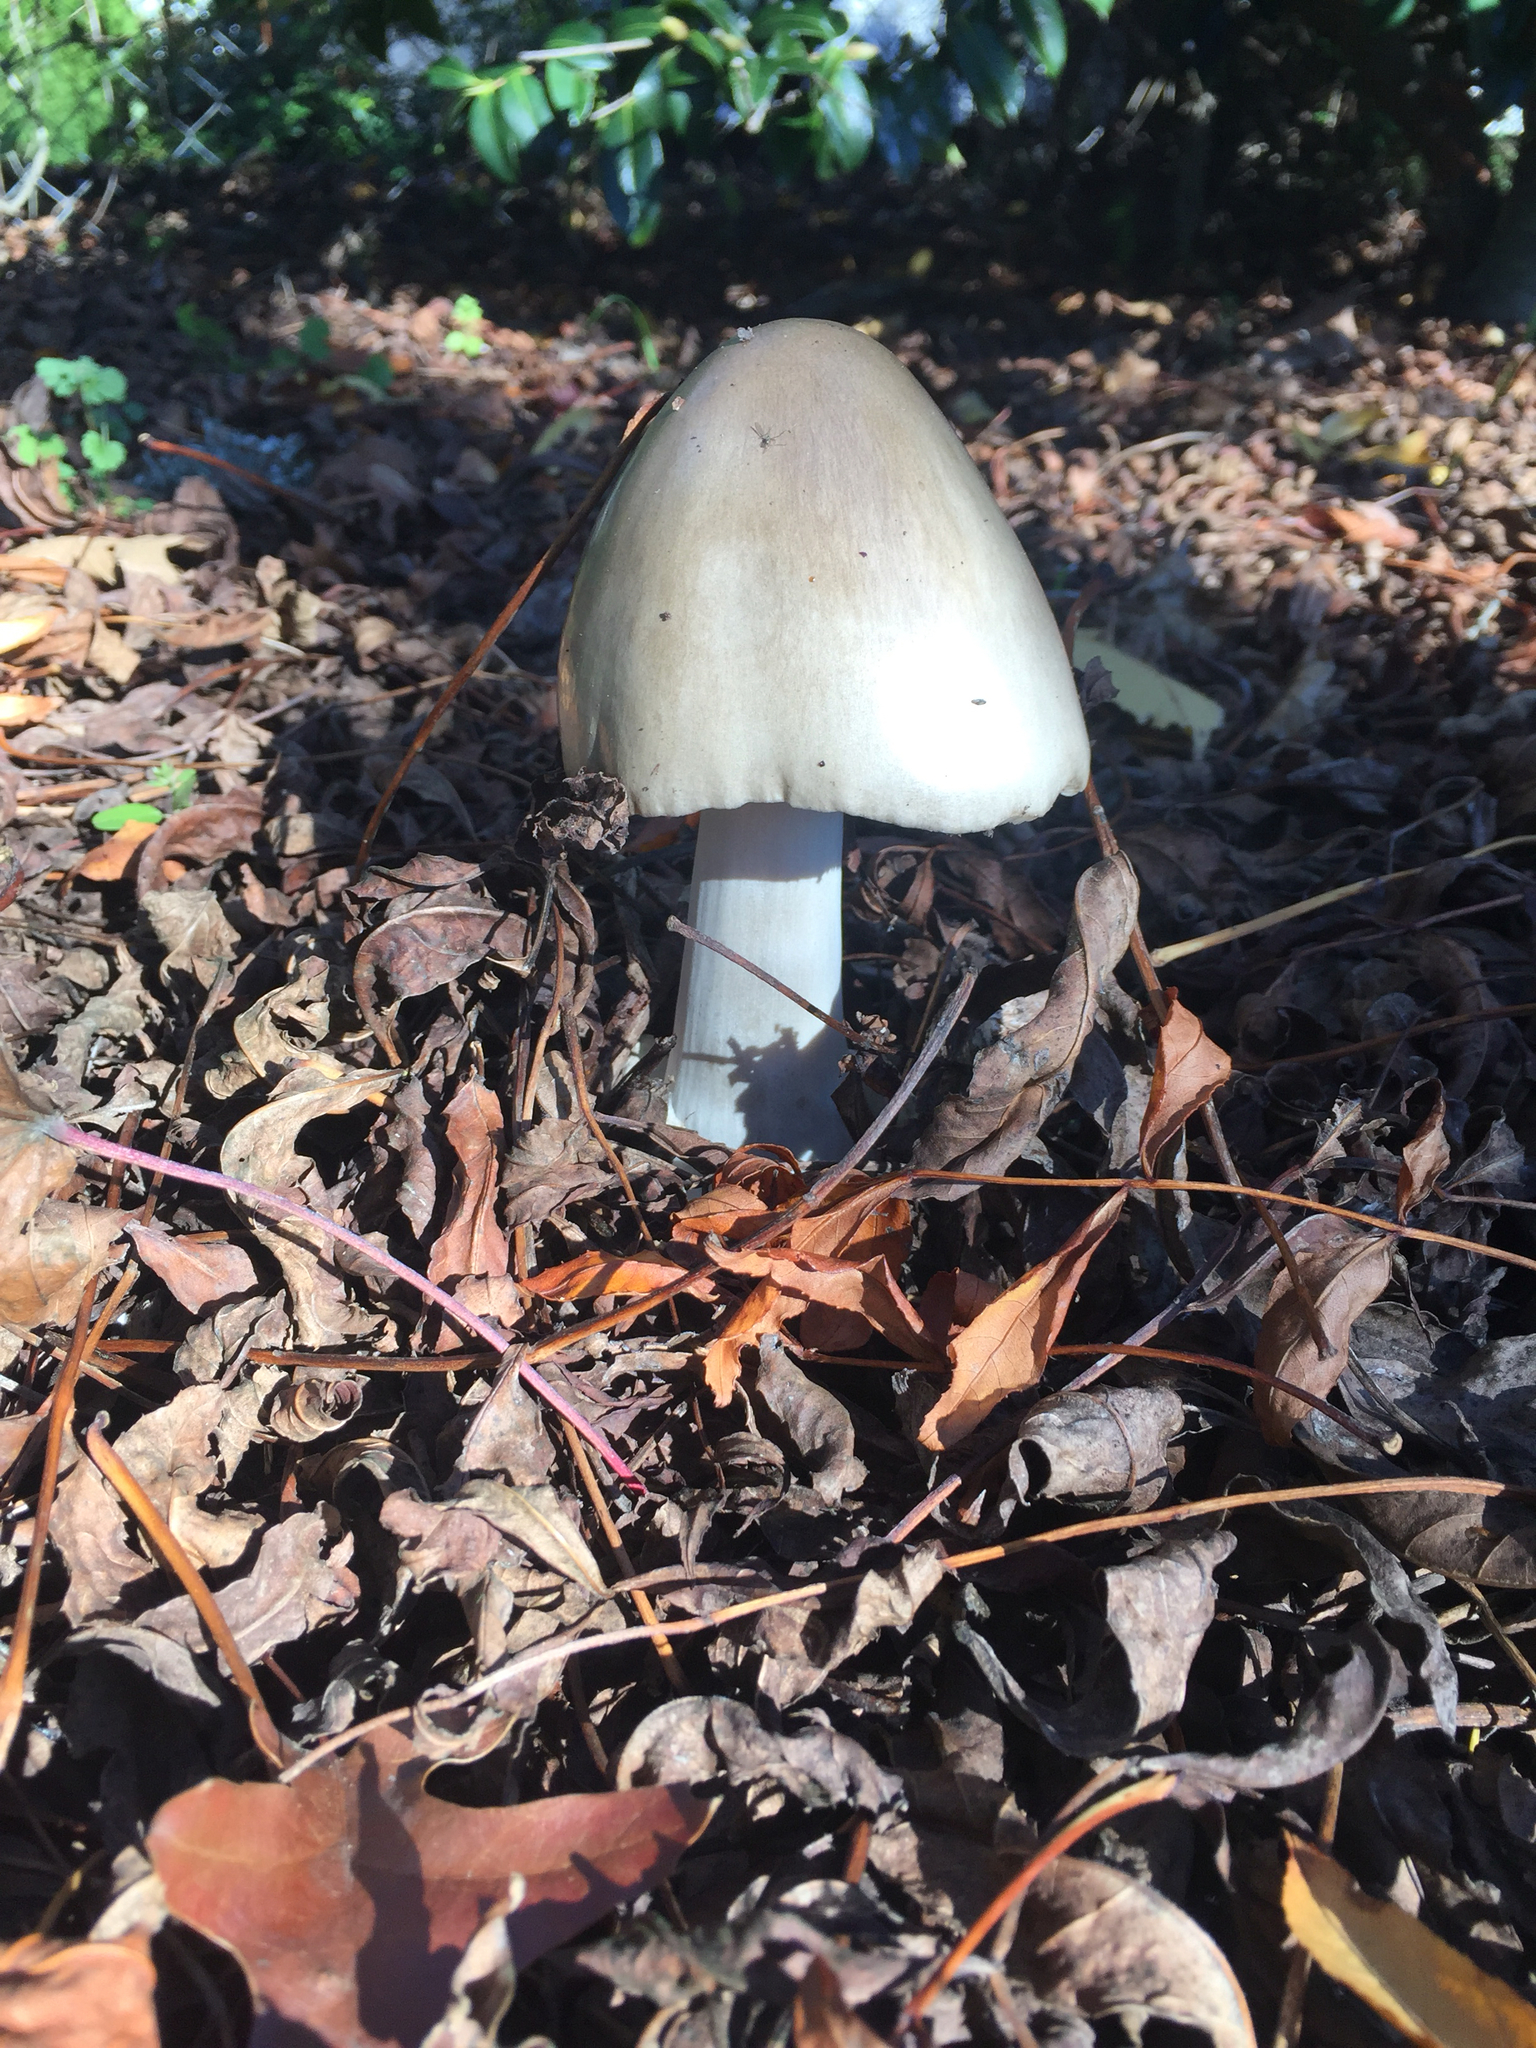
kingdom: Fungi
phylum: Basidiomycota
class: Agaricomycetes
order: Agaricales
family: Pluteaceae
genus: Volvopluteus
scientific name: Volvopluteus gloiocephalus
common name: Stubble rosegill
